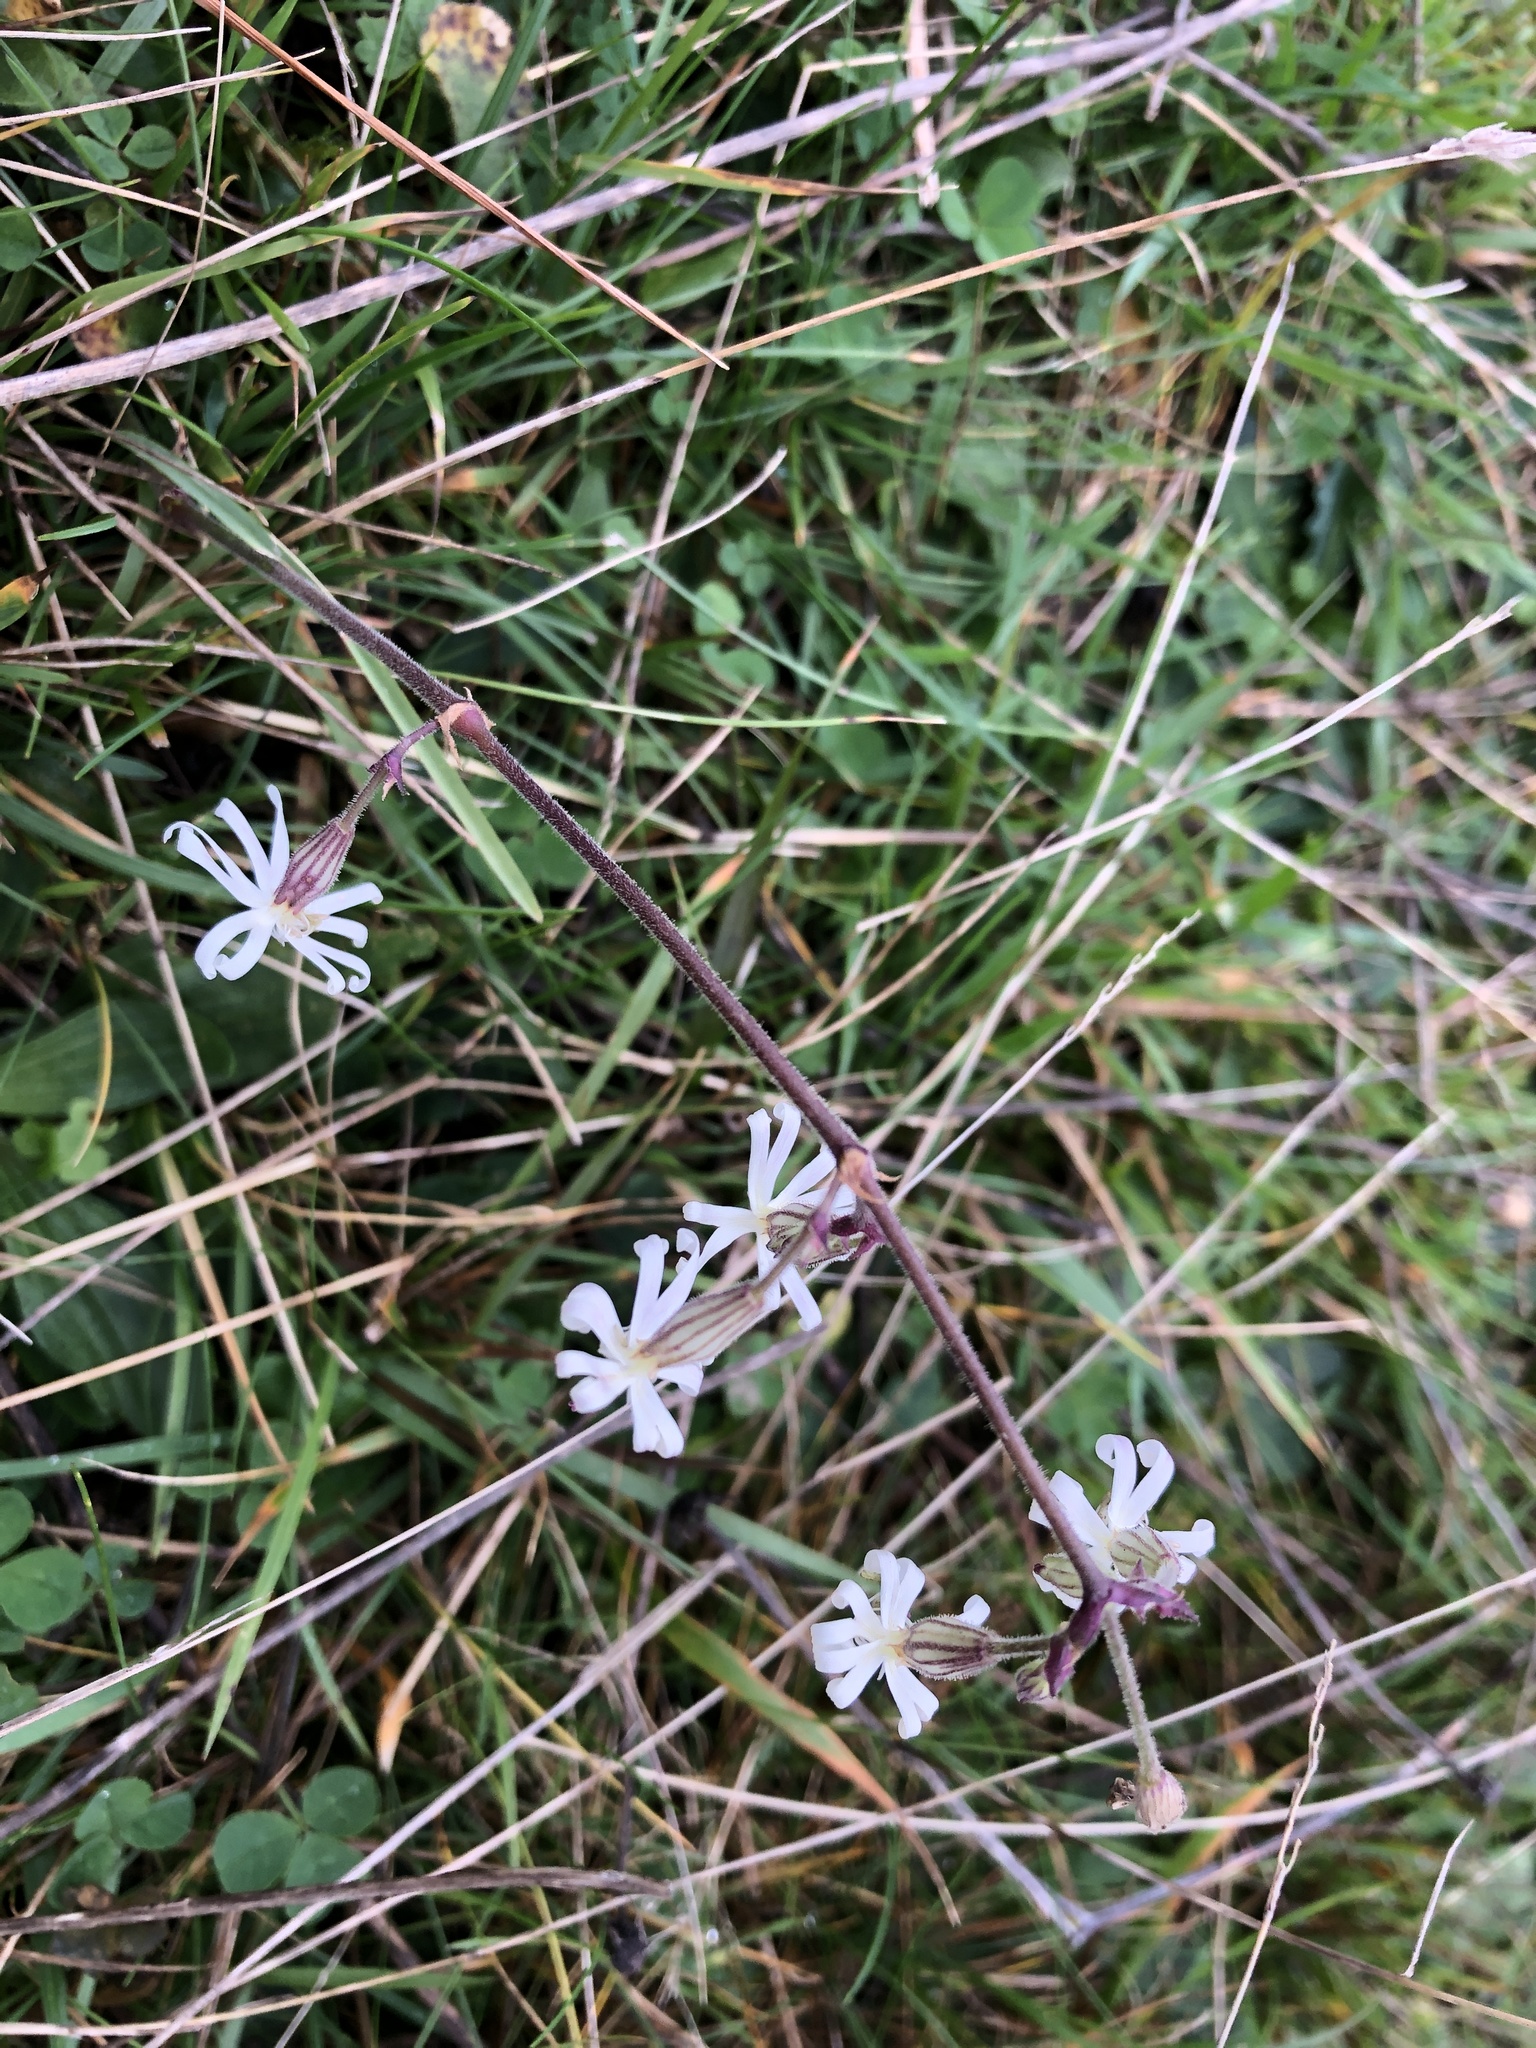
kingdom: Plantae
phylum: Tracheophyta
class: Magnoliopsida
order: Caryophyllales
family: Caryophyllaceae
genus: Silene
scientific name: Silene nutans
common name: Nottingham catchfly
